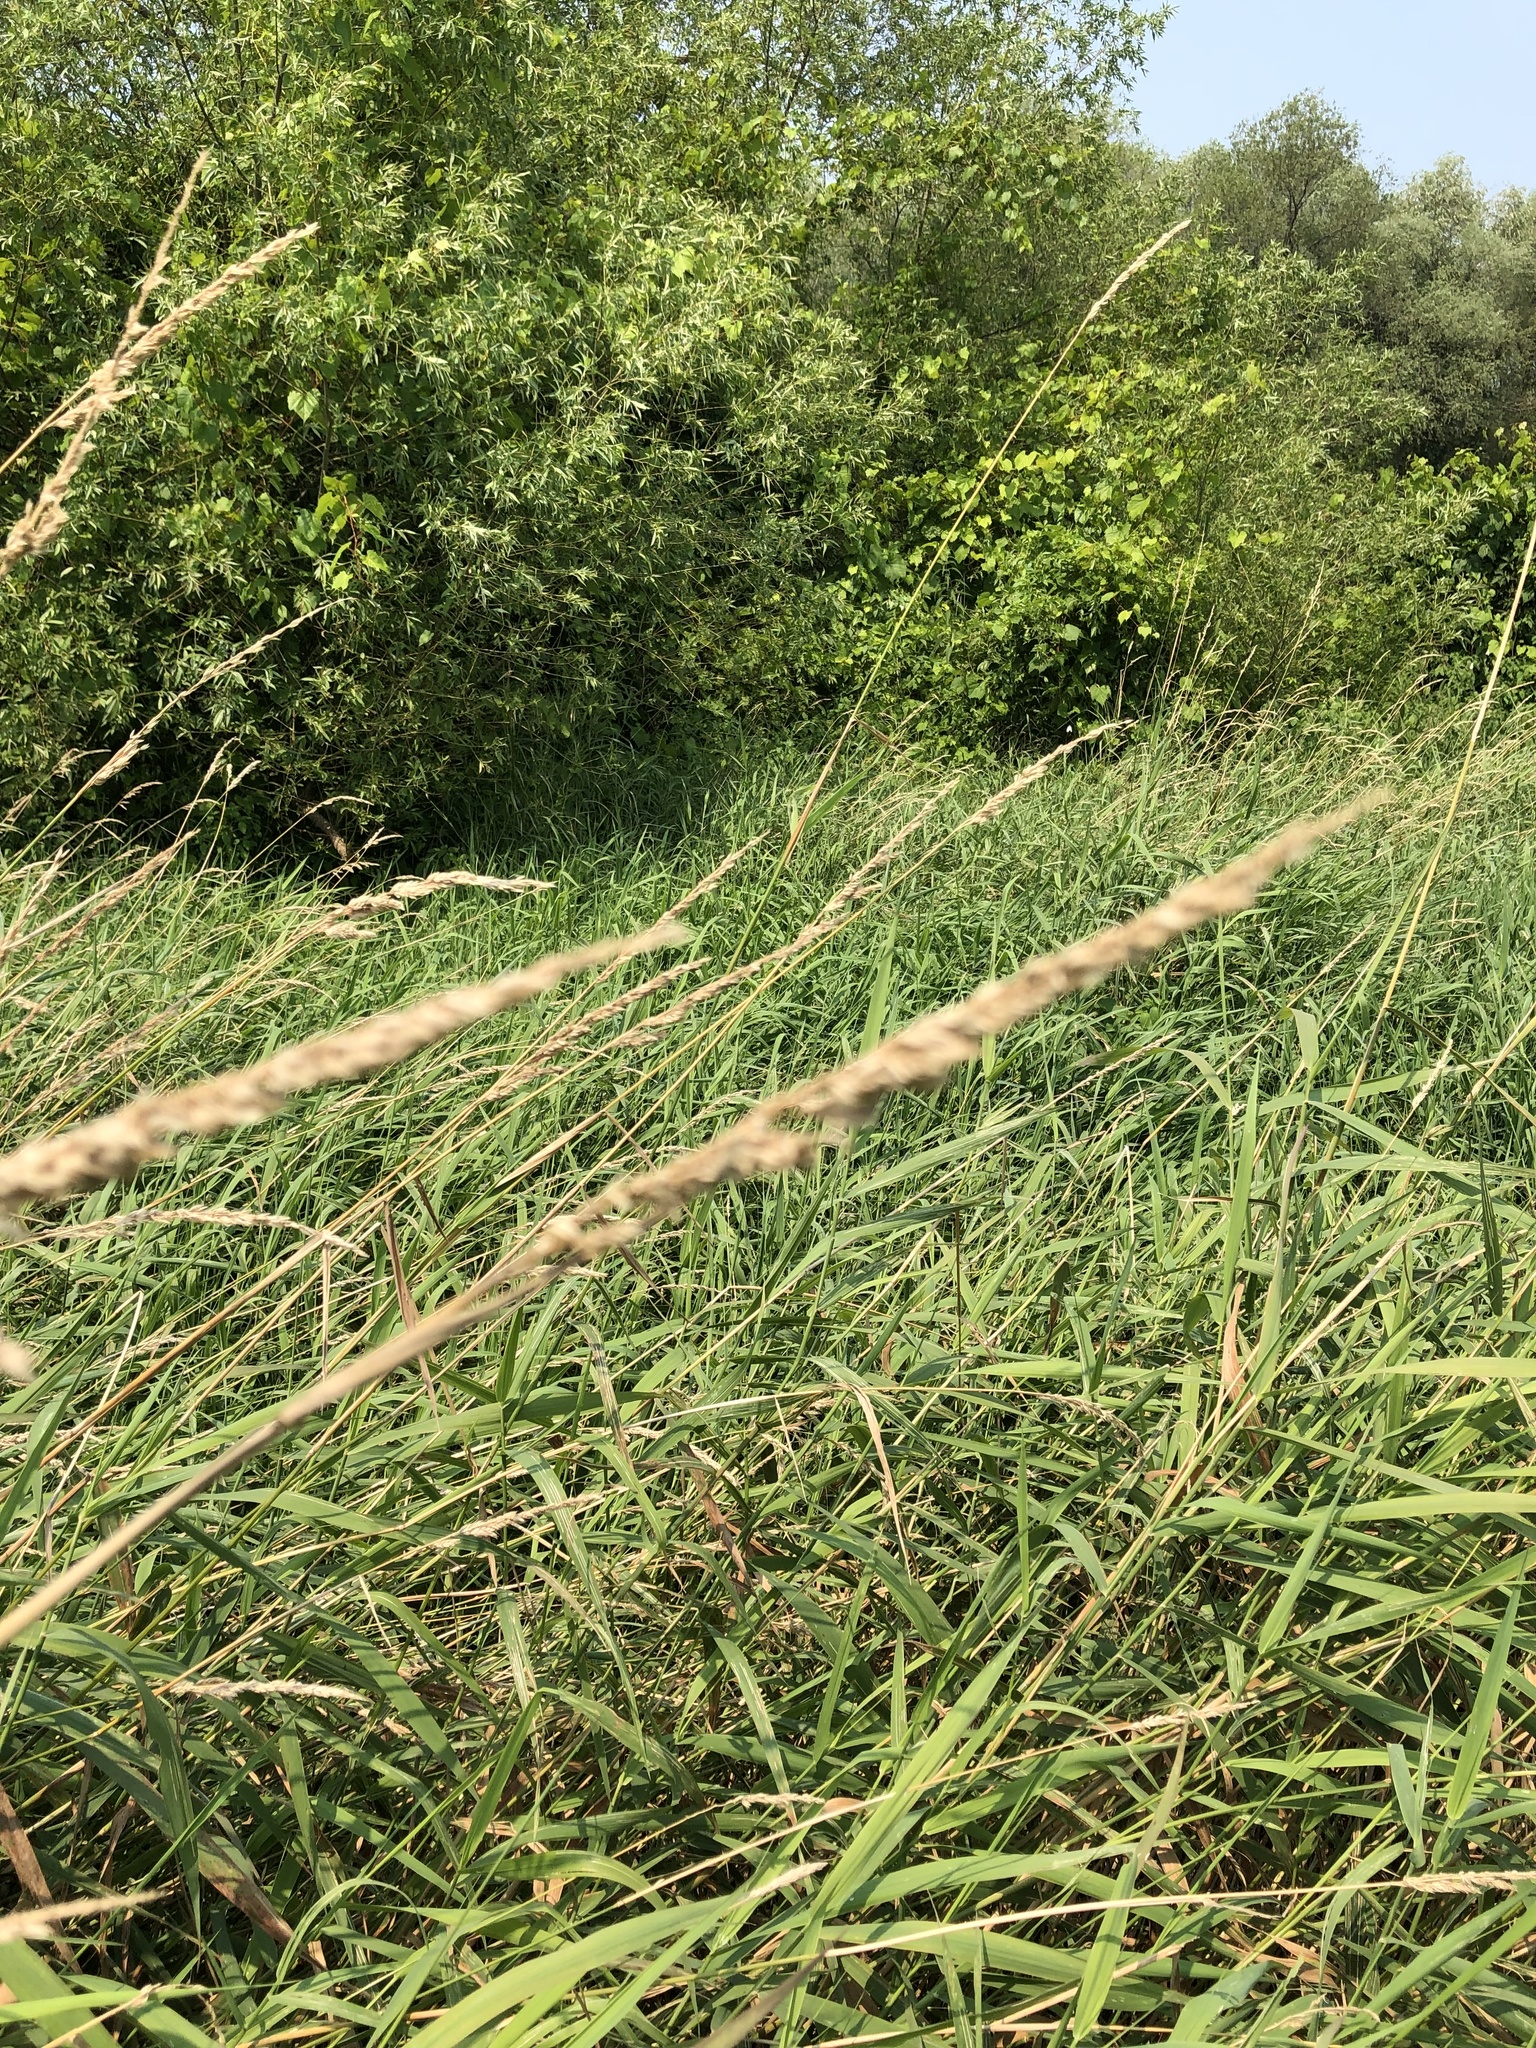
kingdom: Plantae
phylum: Tracheophyta
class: Liliopsida
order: Poales
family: Poaceae
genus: Phalaris
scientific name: Phalaris arundinacea
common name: Reed canary-grass
